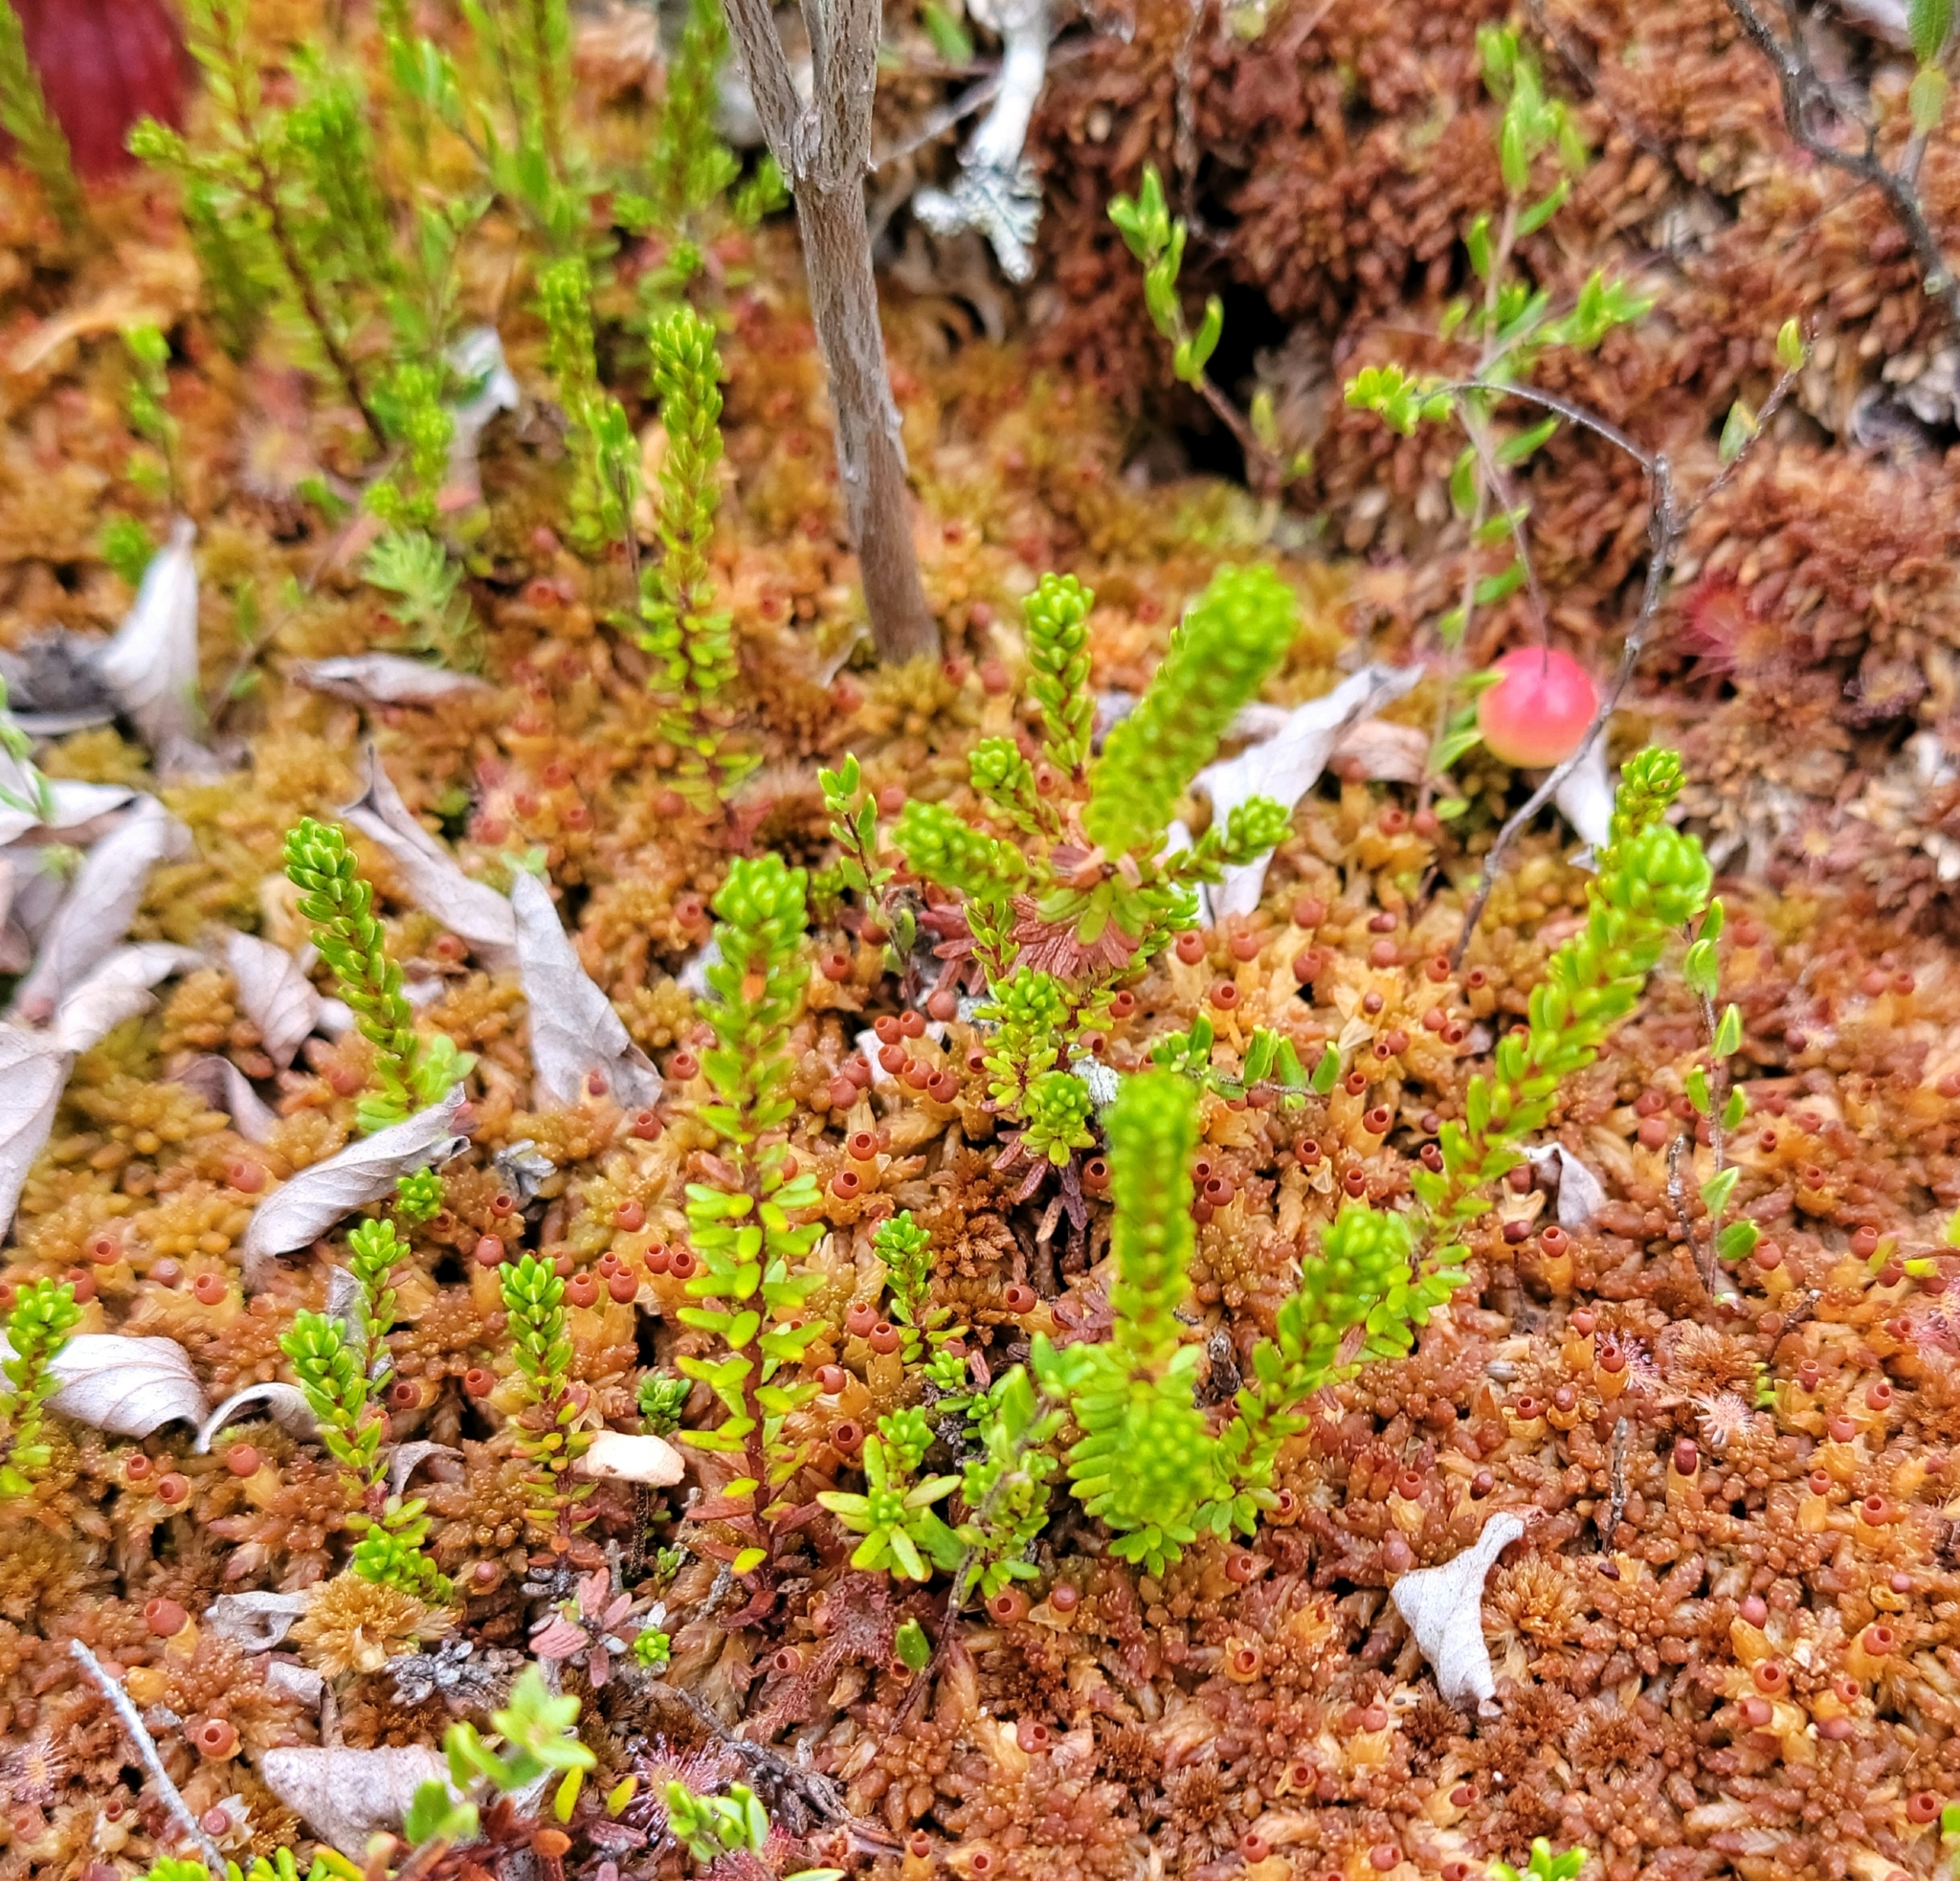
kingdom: Plantae
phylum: Tracheophyta
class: Magnoliopsida
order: Ericales
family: Ericaceae
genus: Empetrum
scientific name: Empetrum nigrum
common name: Black crowberry
